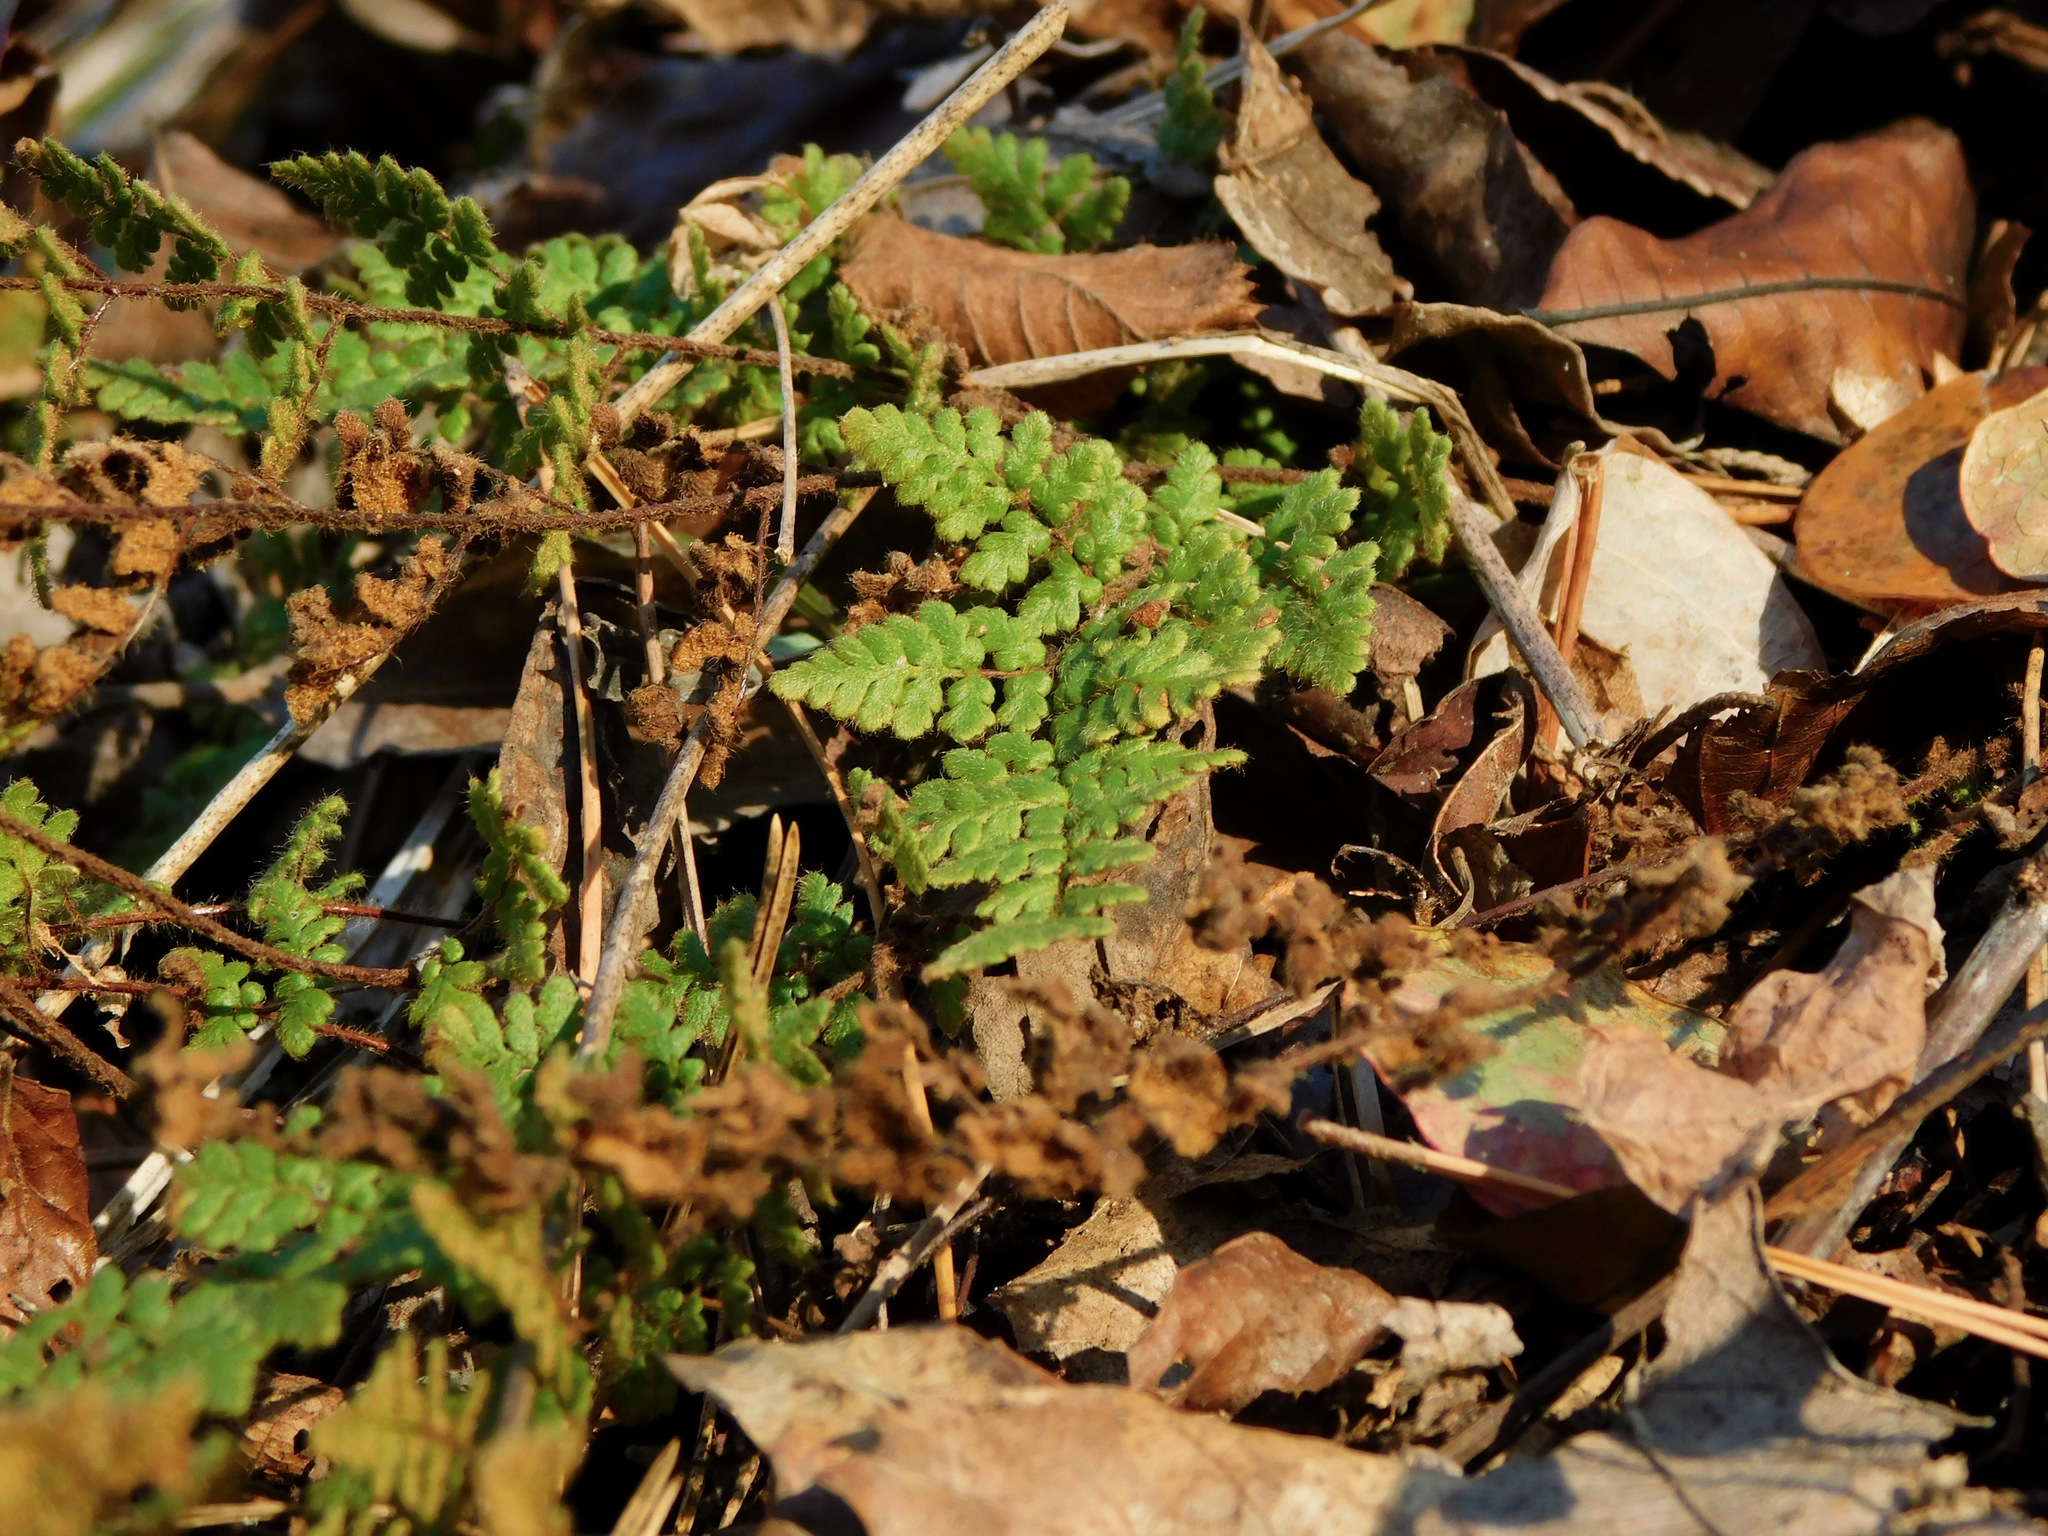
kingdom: Plantae
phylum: Tracheophyta
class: Polypodiopsida
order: Polypodiales
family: Pteridaceae
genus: Myriopteris
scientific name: Myriopteris lanosa
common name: Hairy lip fern
